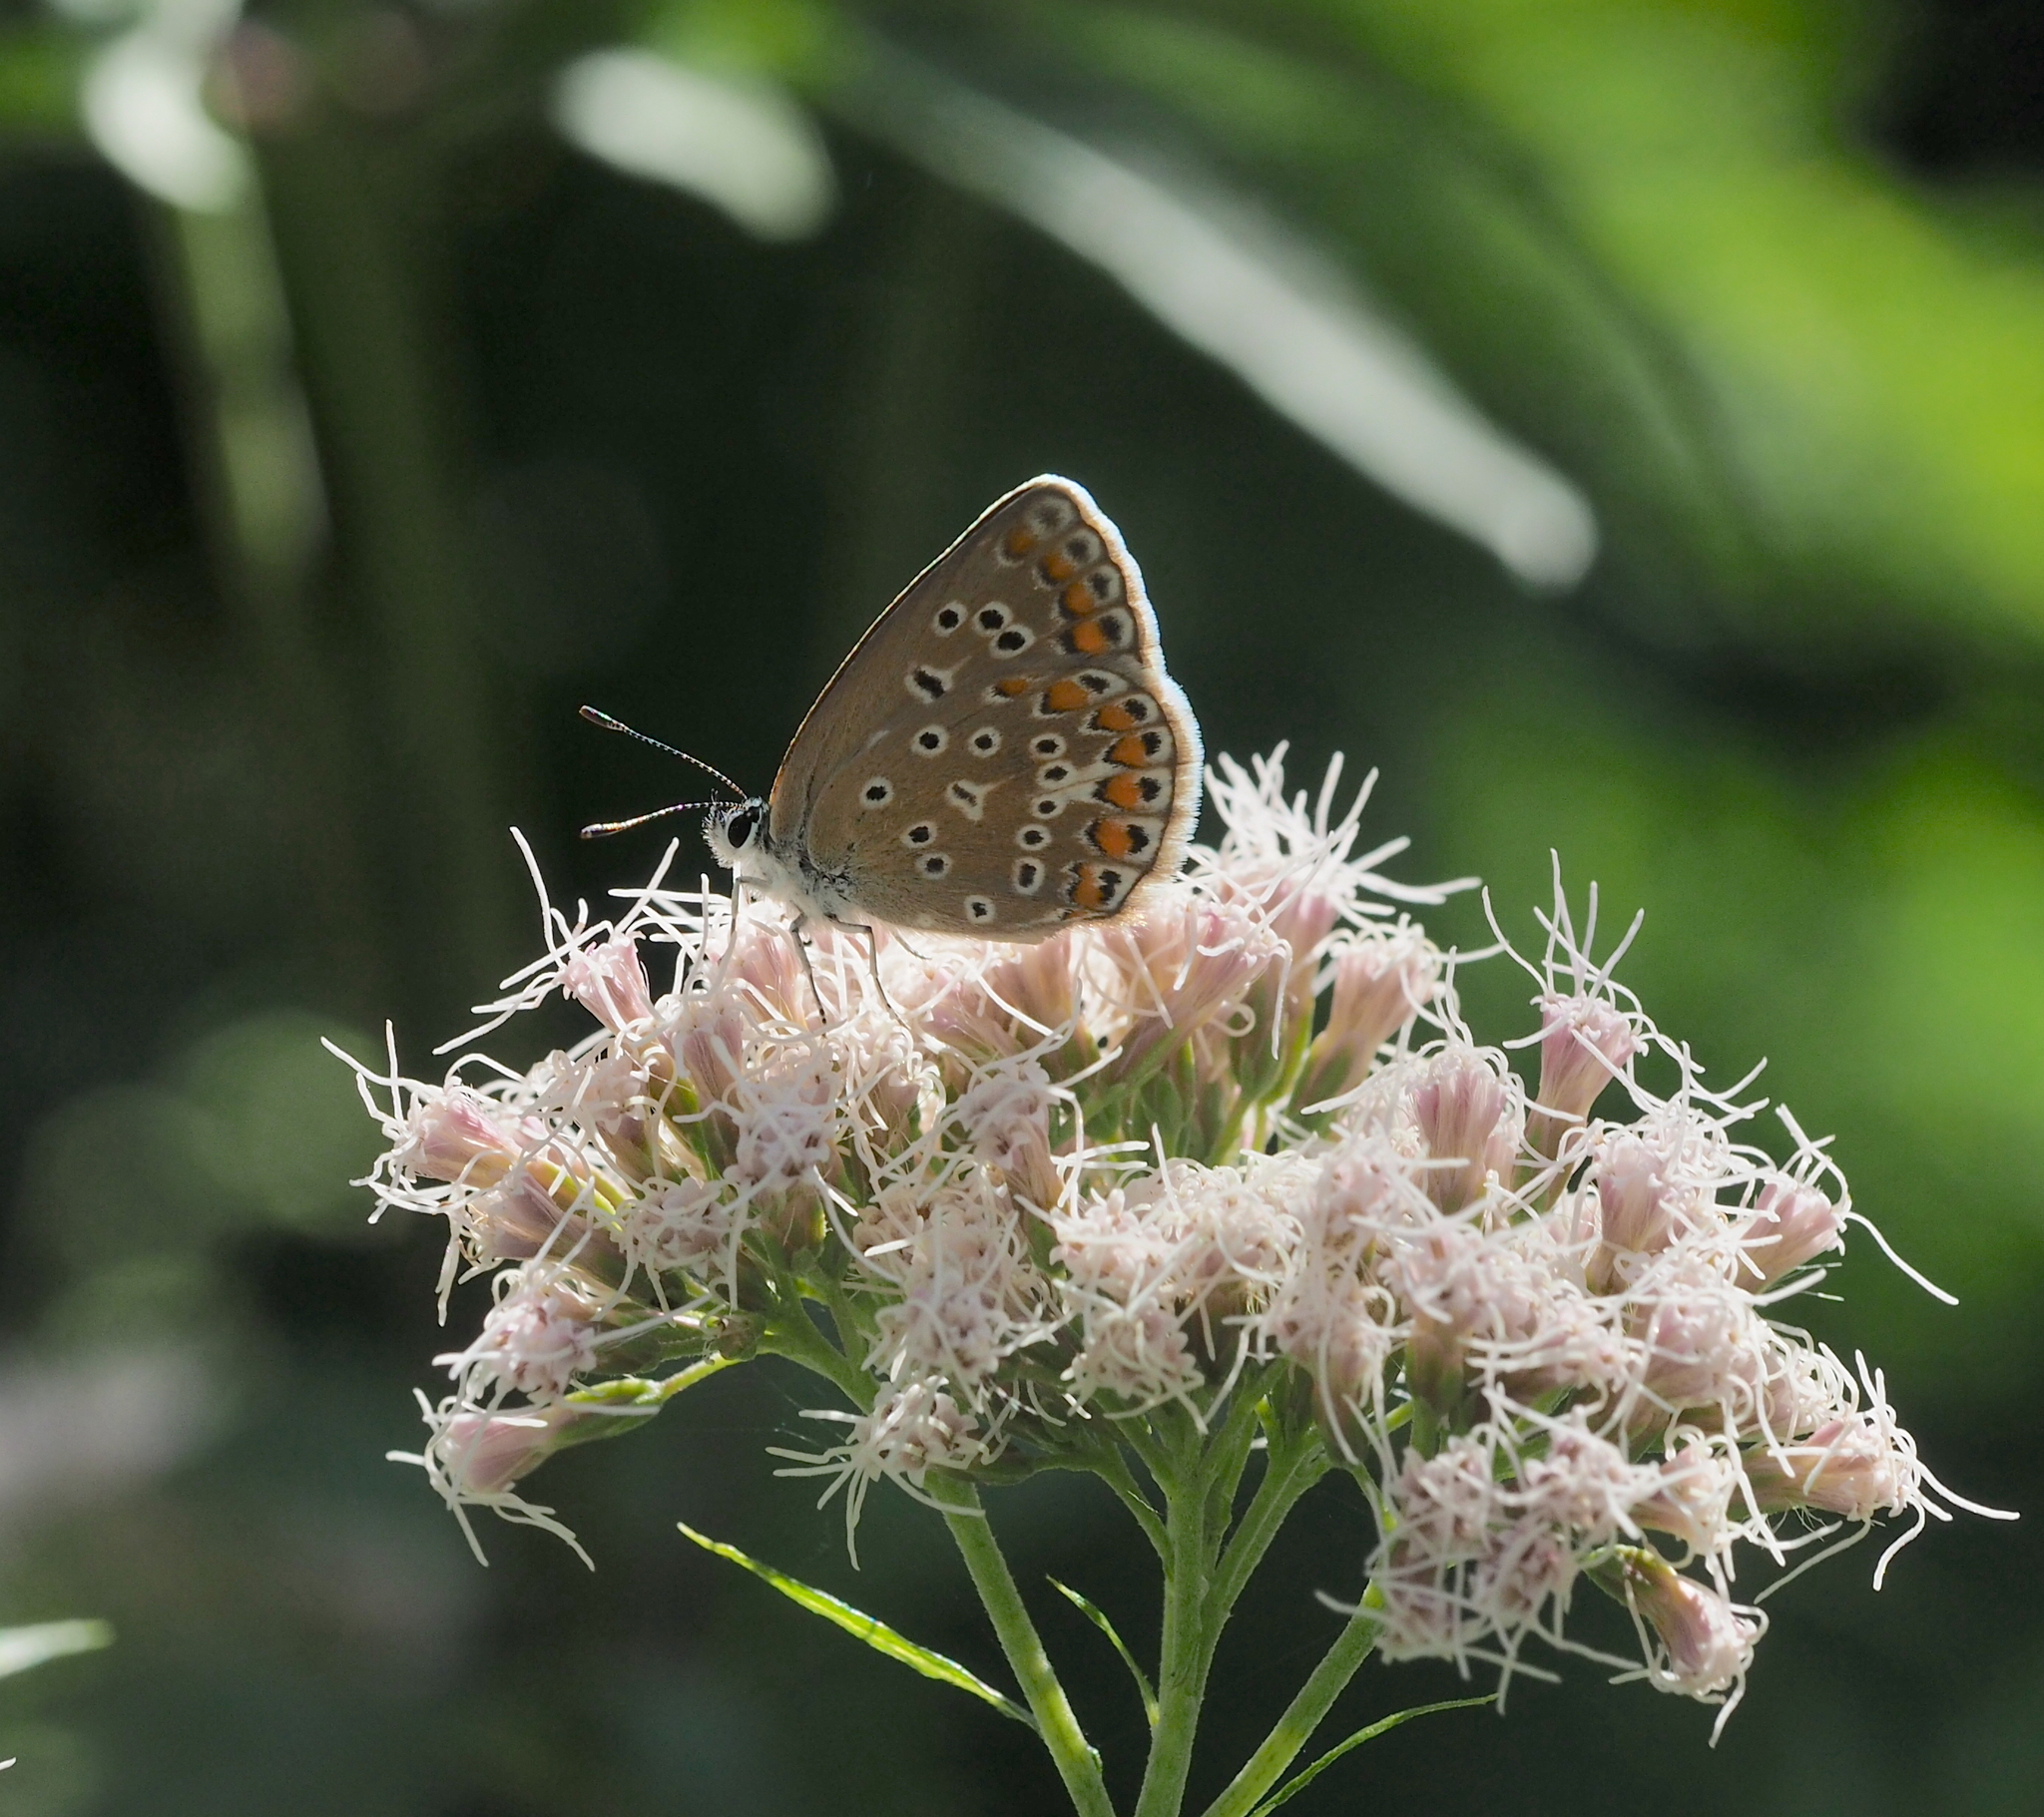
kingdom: Animalia
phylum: Arthropoda
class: Insecta
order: Lepidoptera
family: Lycaenidae
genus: Polyommatus
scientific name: Polyommatus icarus
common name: Common blue
